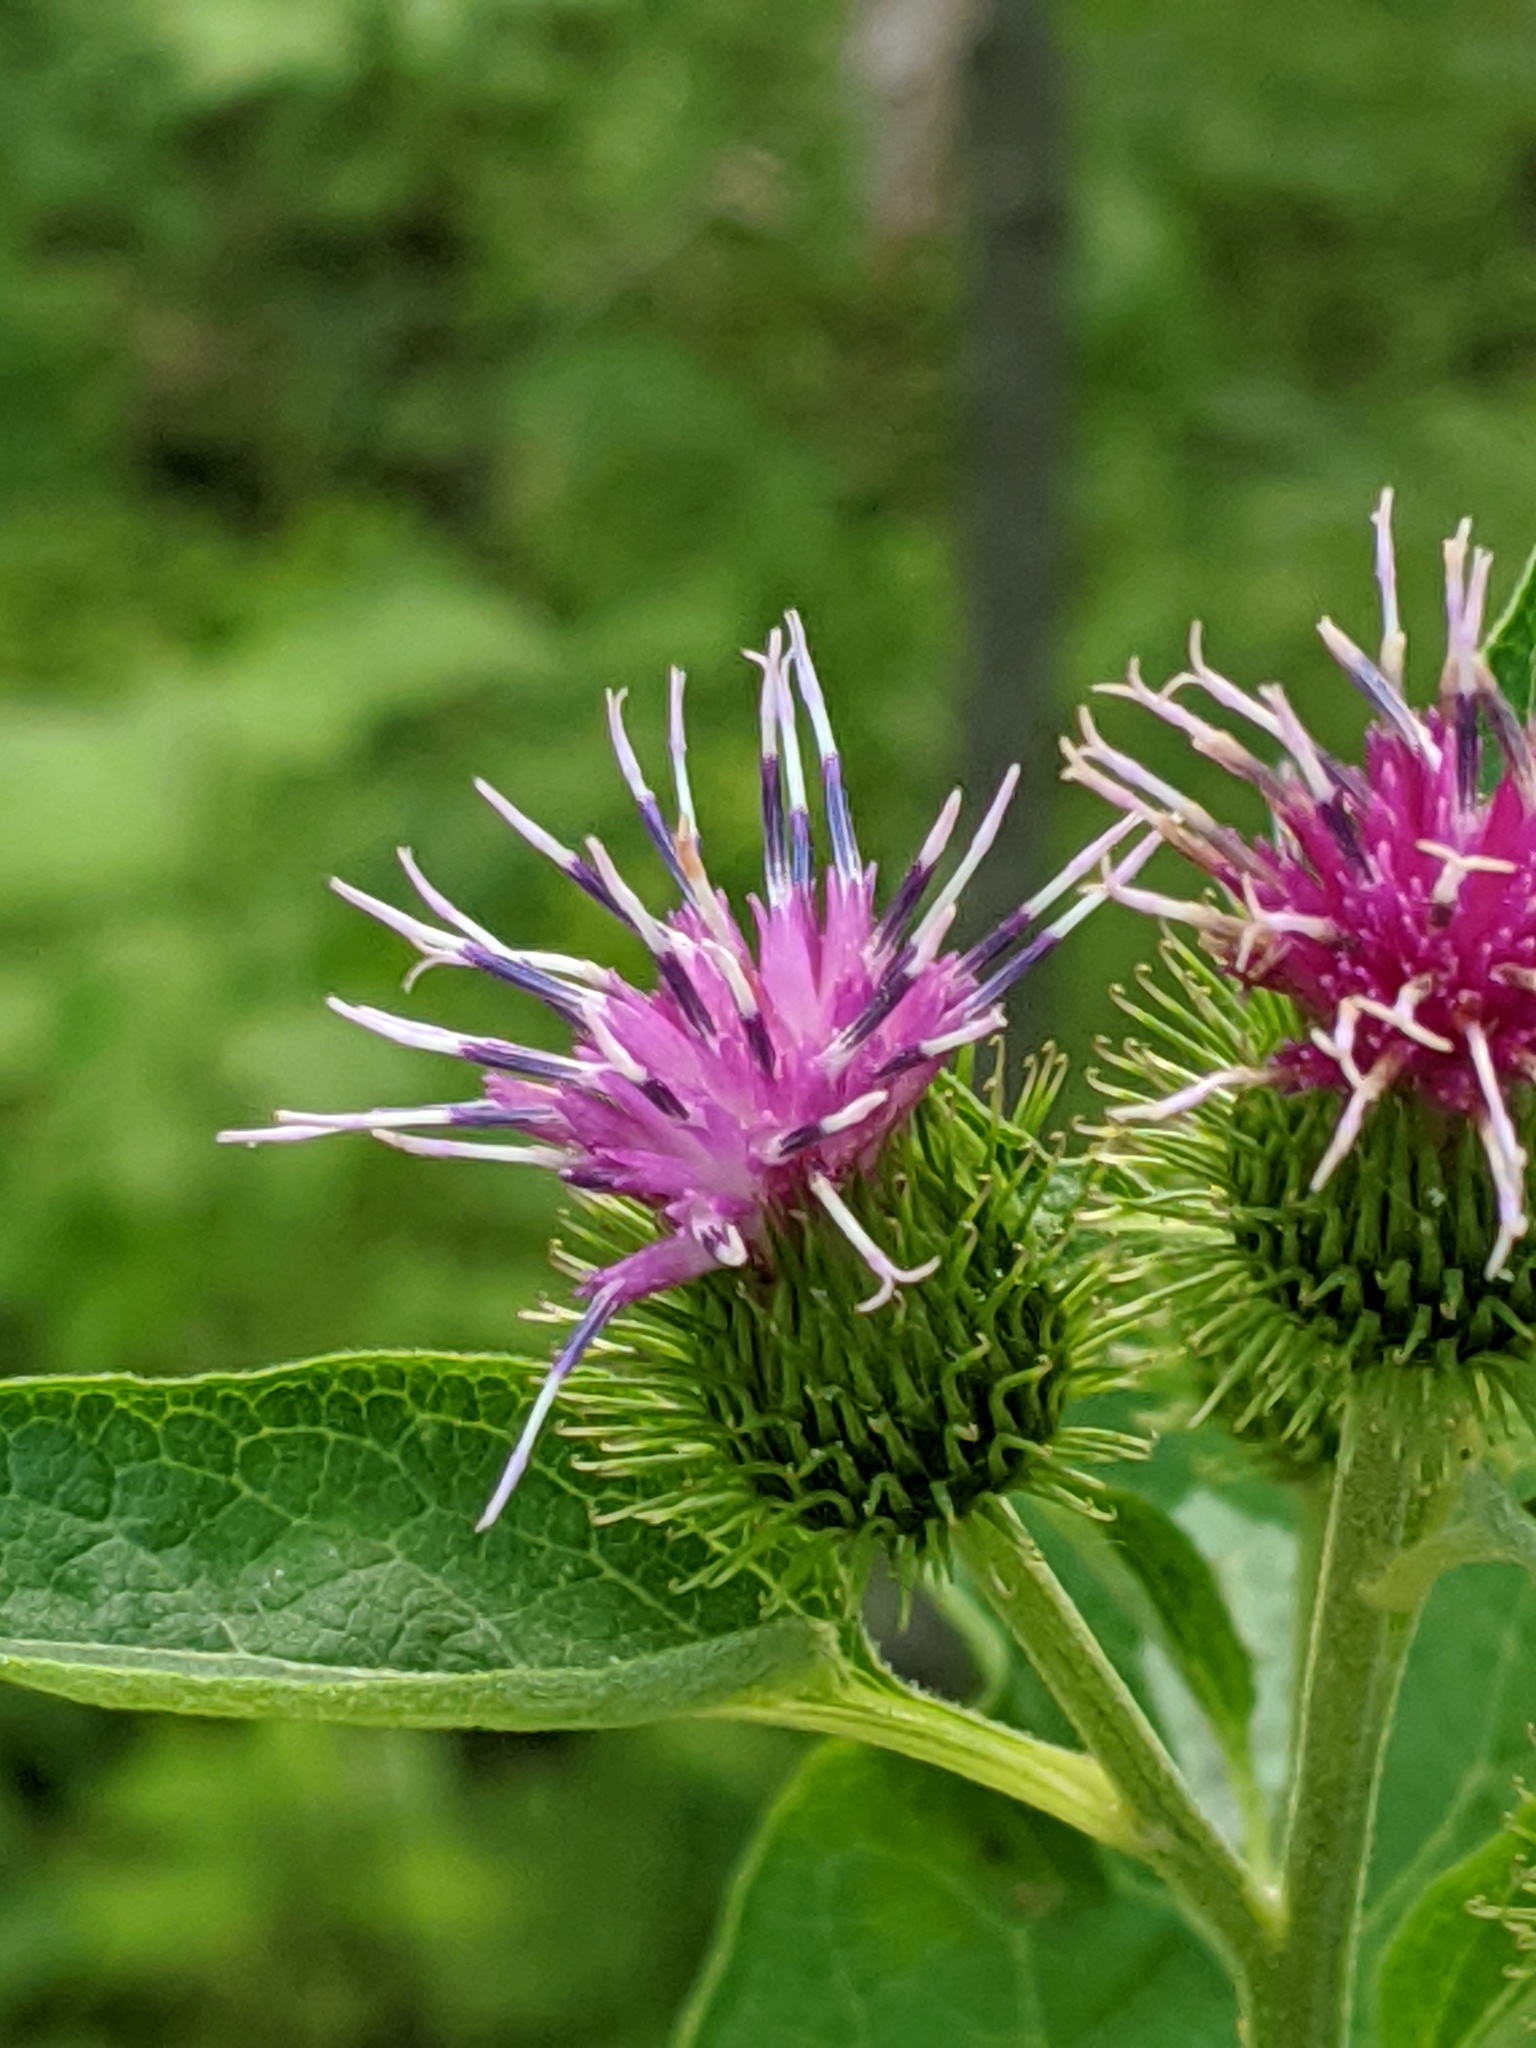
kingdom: Plantae
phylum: Tracheophyta
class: Magnoliopsida
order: Asterales
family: Asteraceae
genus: Arctium
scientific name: Arctium minus
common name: Lesser burdock
